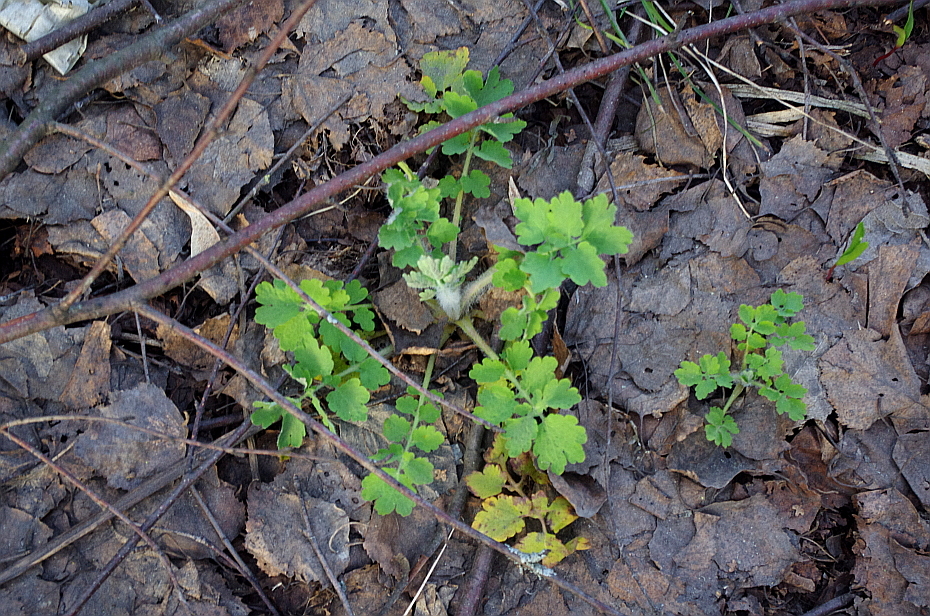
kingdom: Plantae
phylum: Tracheophyta
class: Magnoliopsida
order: Ranunculales
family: Papaveraceae
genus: Chelidonium
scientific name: Chelidonium majus
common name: Greater celandine
